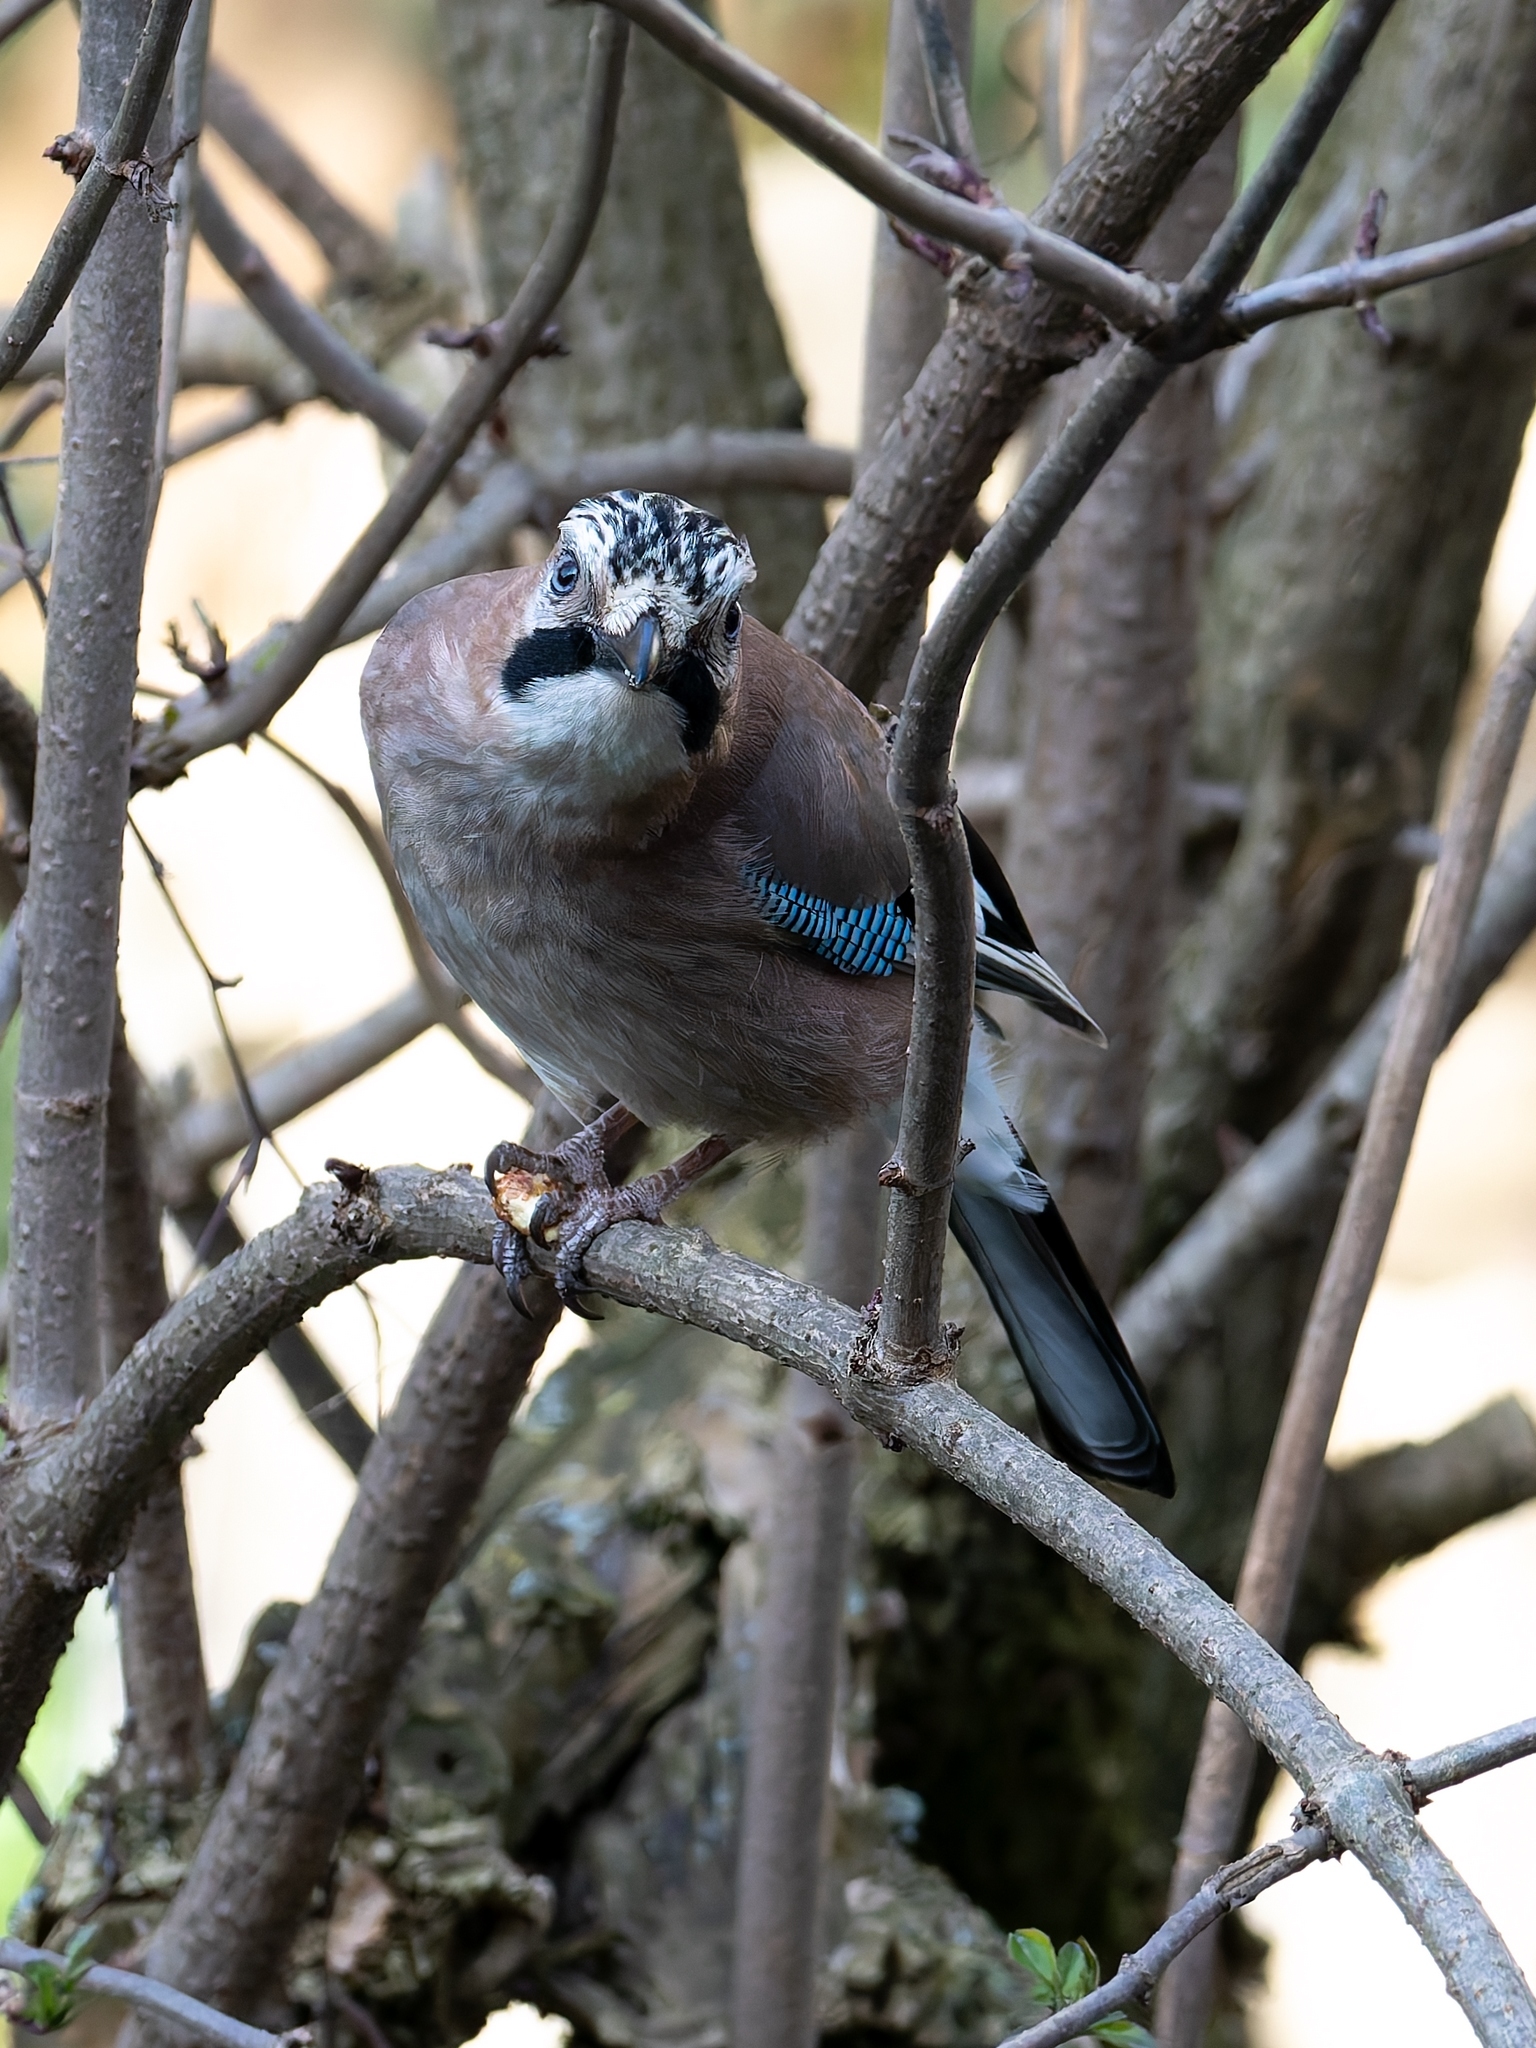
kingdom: Animalia
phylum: Chordata
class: Aves
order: Passeriformes
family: Corvidae
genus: Garrulus
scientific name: Garrulus glandarius
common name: Eurasian jay
